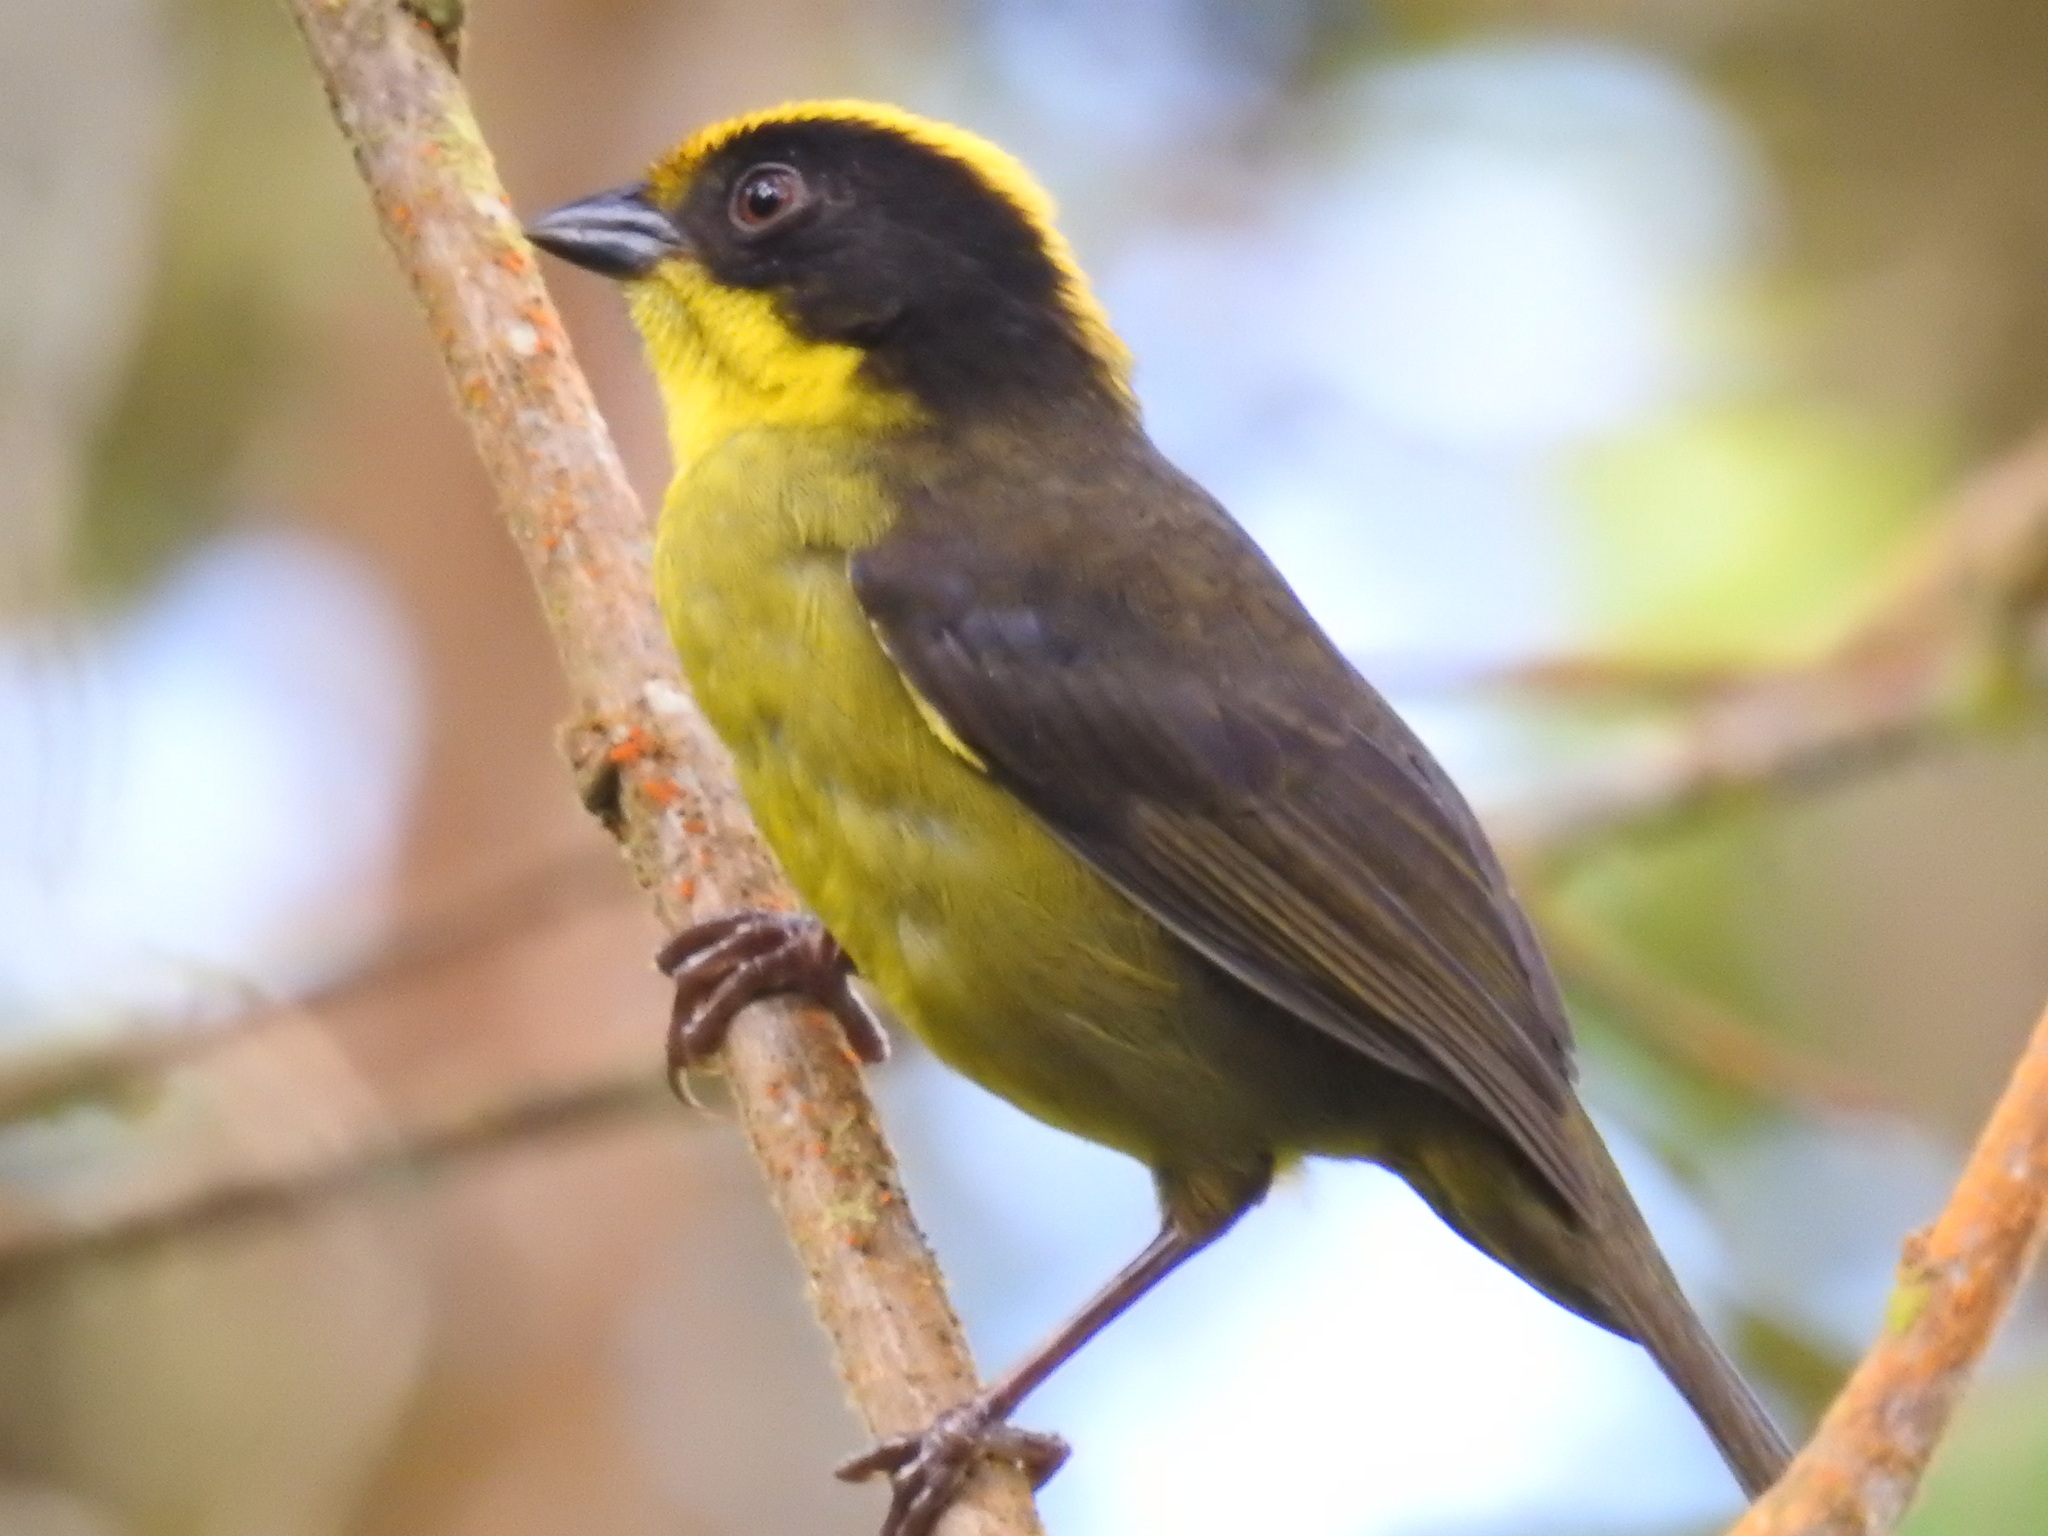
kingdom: Animalia
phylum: Chordata
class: Aves
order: Passeriformes
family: Passerellidae
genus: Atlapetes
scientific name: Atlapetes tricolor
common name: Tricolored brushfinch
